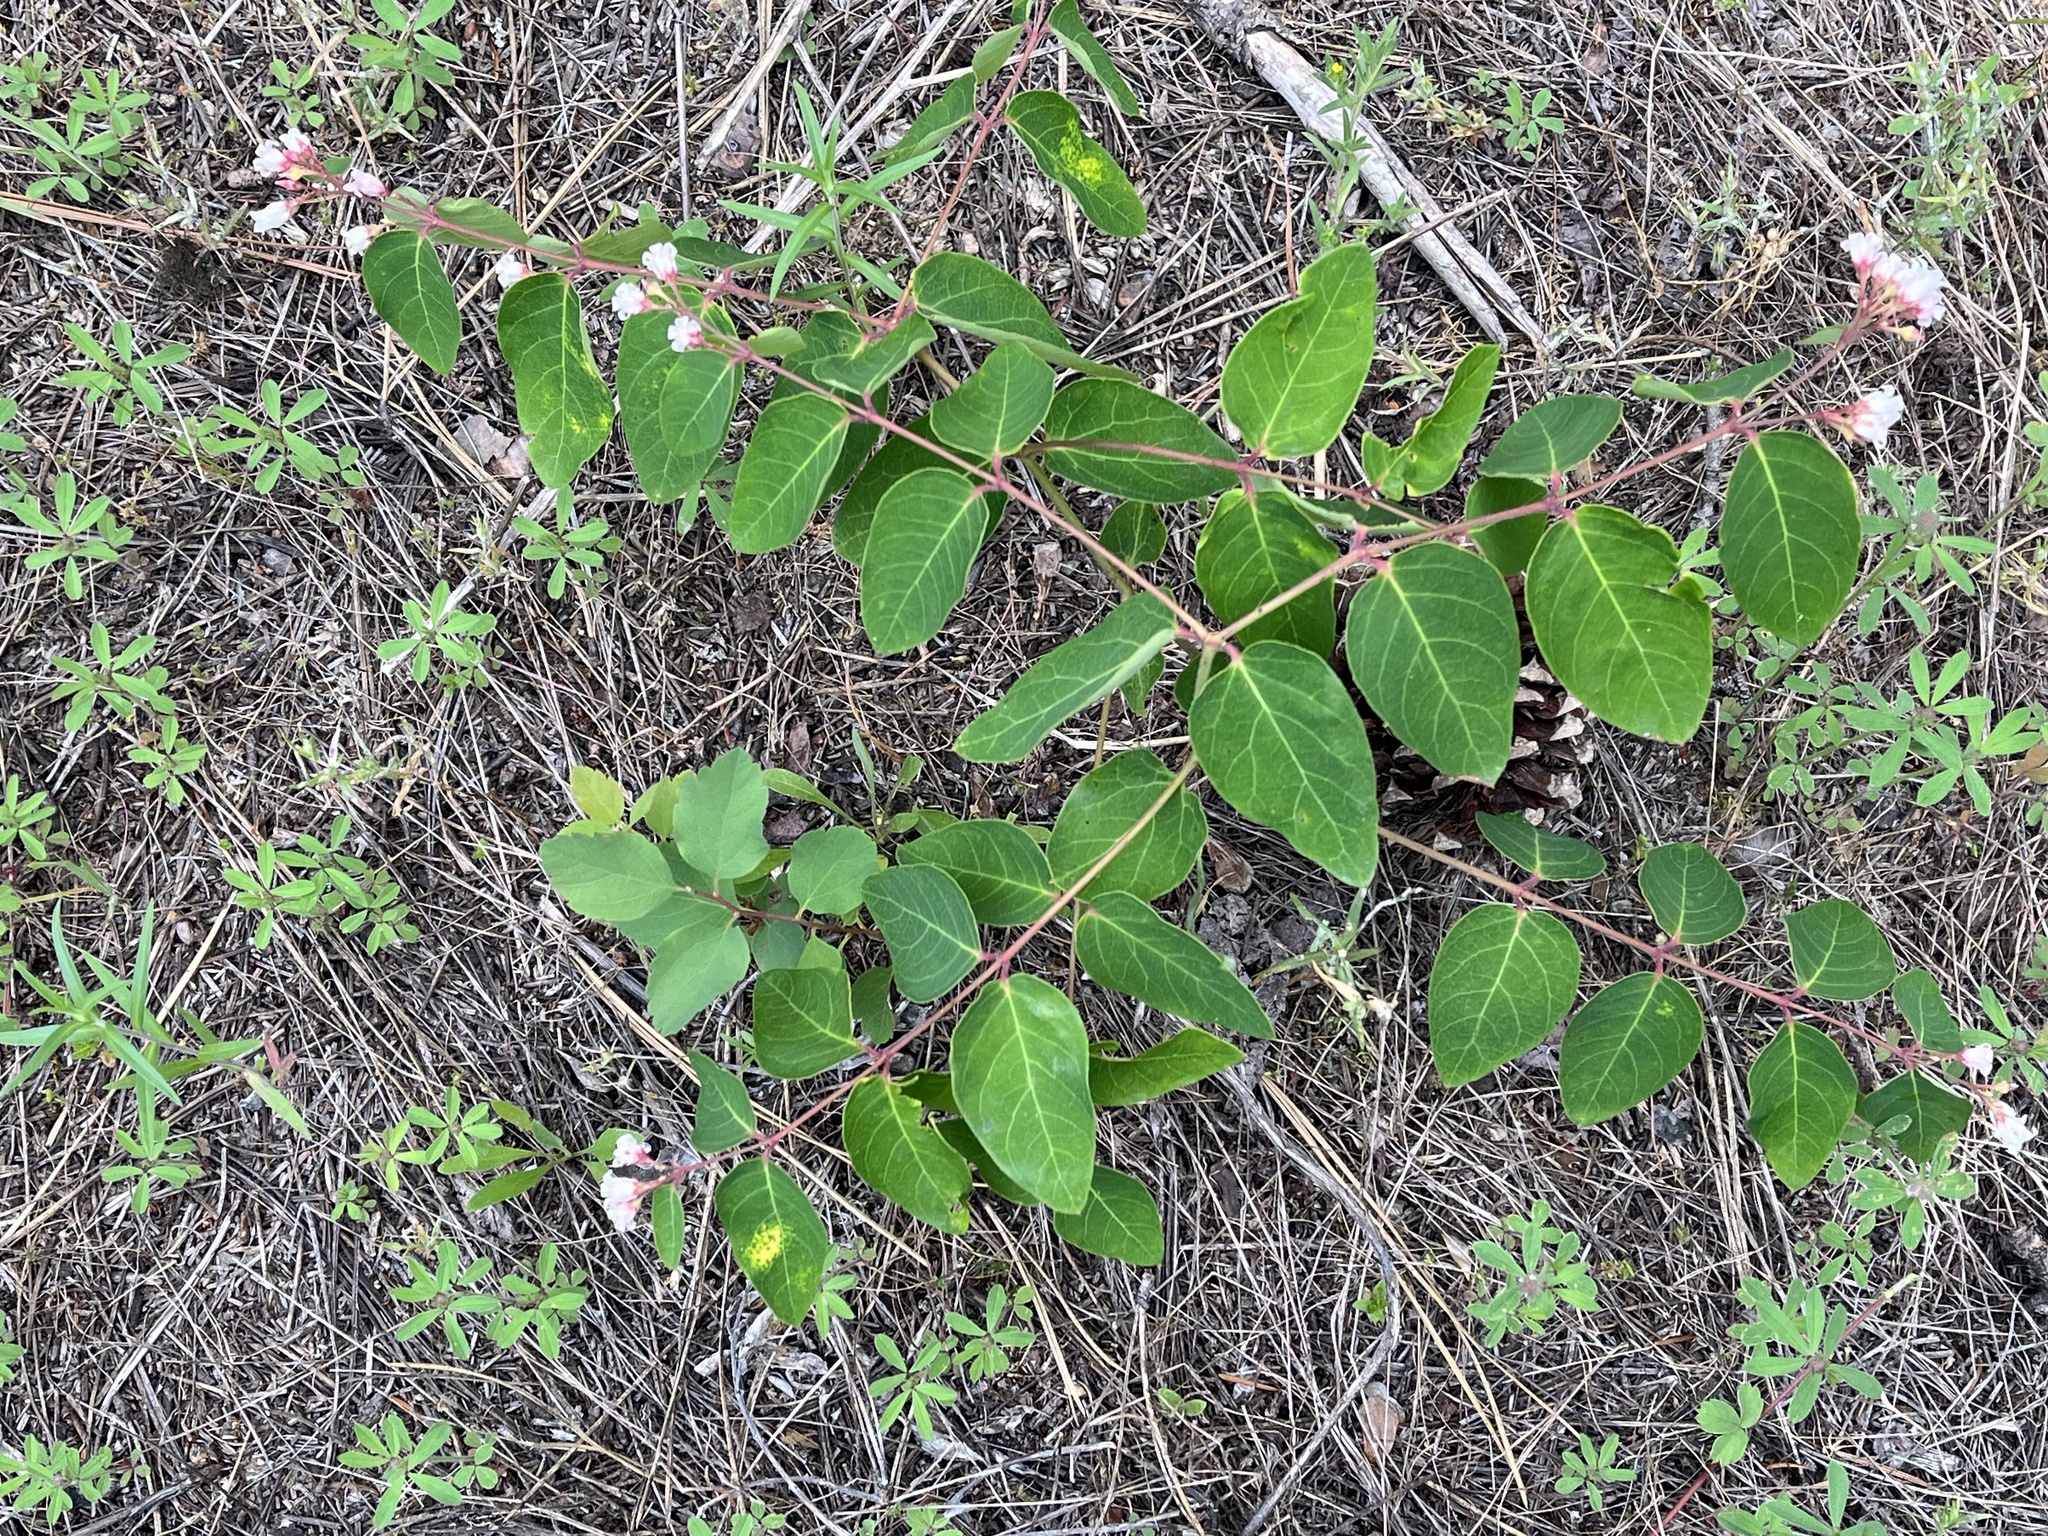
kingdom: Plantae
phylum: Tracheophyta
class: Magnoliopsida
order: Gentianales
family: Apocynaceae
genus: Apocynum
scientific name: Apocynum androsaemifolium
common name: Spreading dogbane
